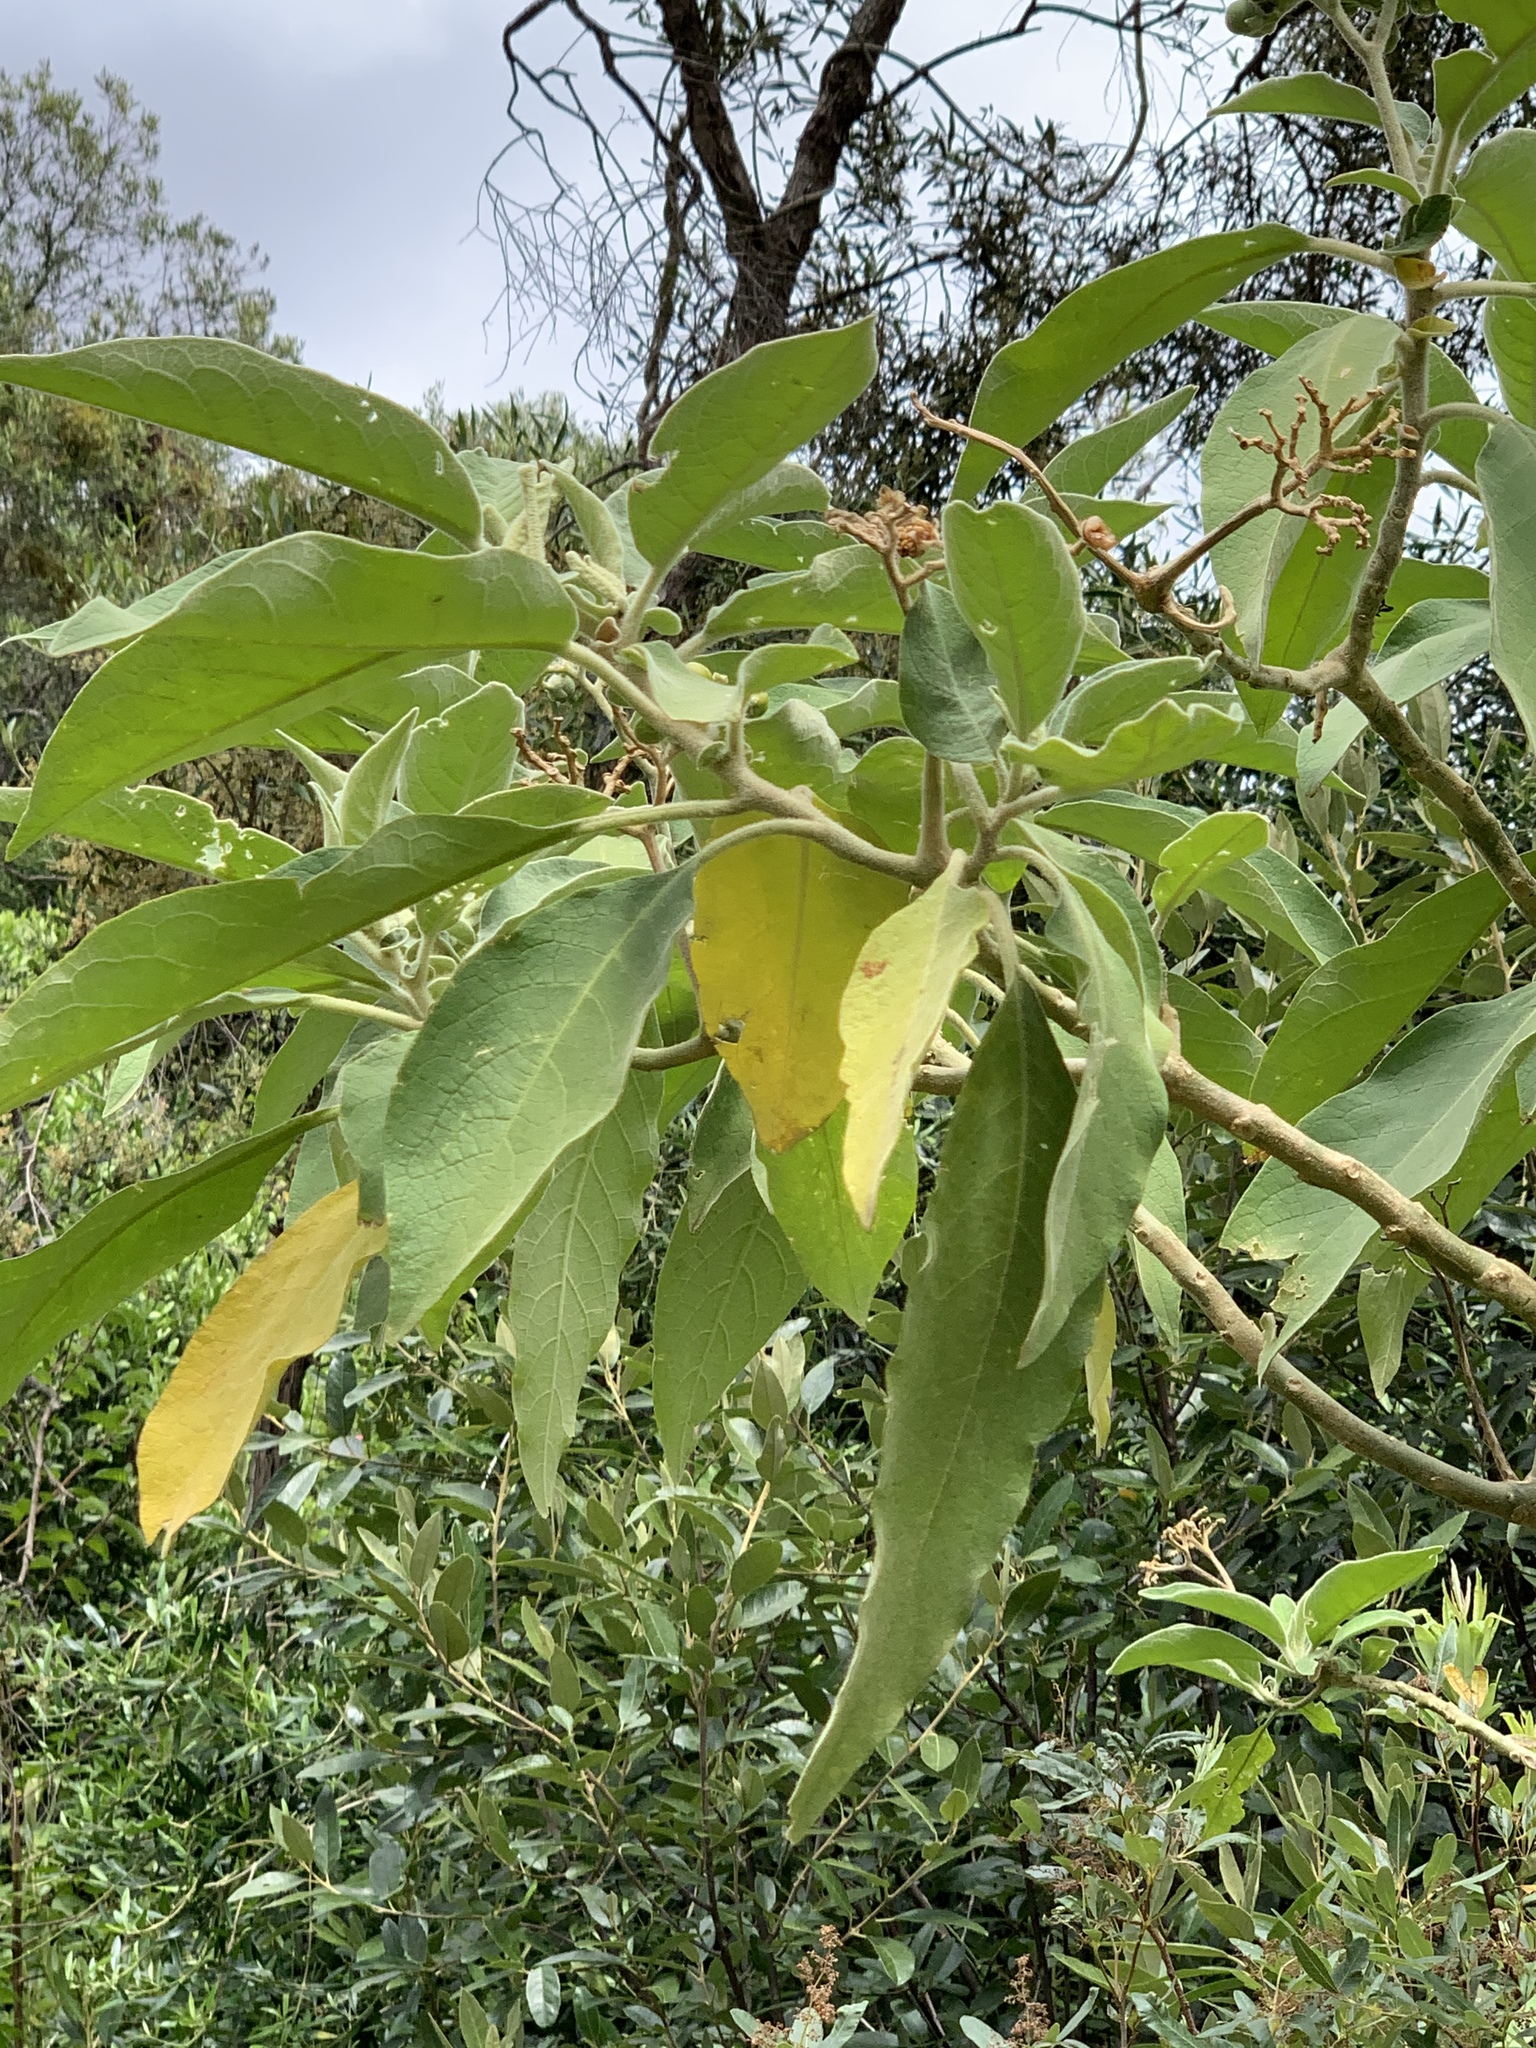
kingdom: Plantae
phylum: Tracheophyta
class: Magnoliopsida
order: Solanales
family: Solanaceae
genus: Solanum
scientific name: Solanum mauritianum
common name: Earleaf nightshade
